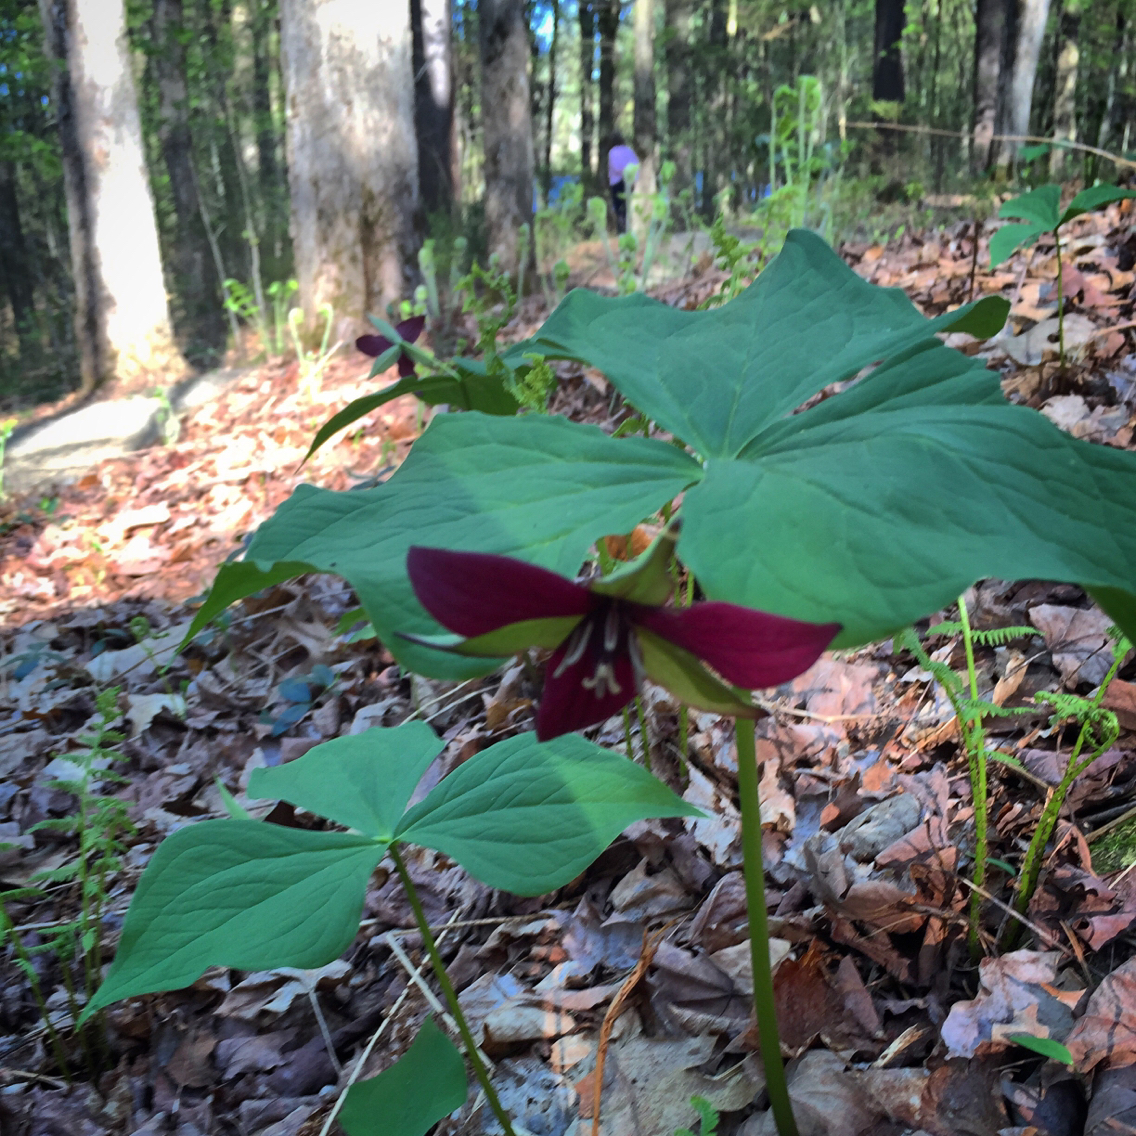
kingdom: Plantae
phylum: Tracheophyta
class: Liliopsida
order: Liliales
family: Melanthiaceae
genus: Trillium
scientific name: Trillium erectum
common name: Purple trillium
